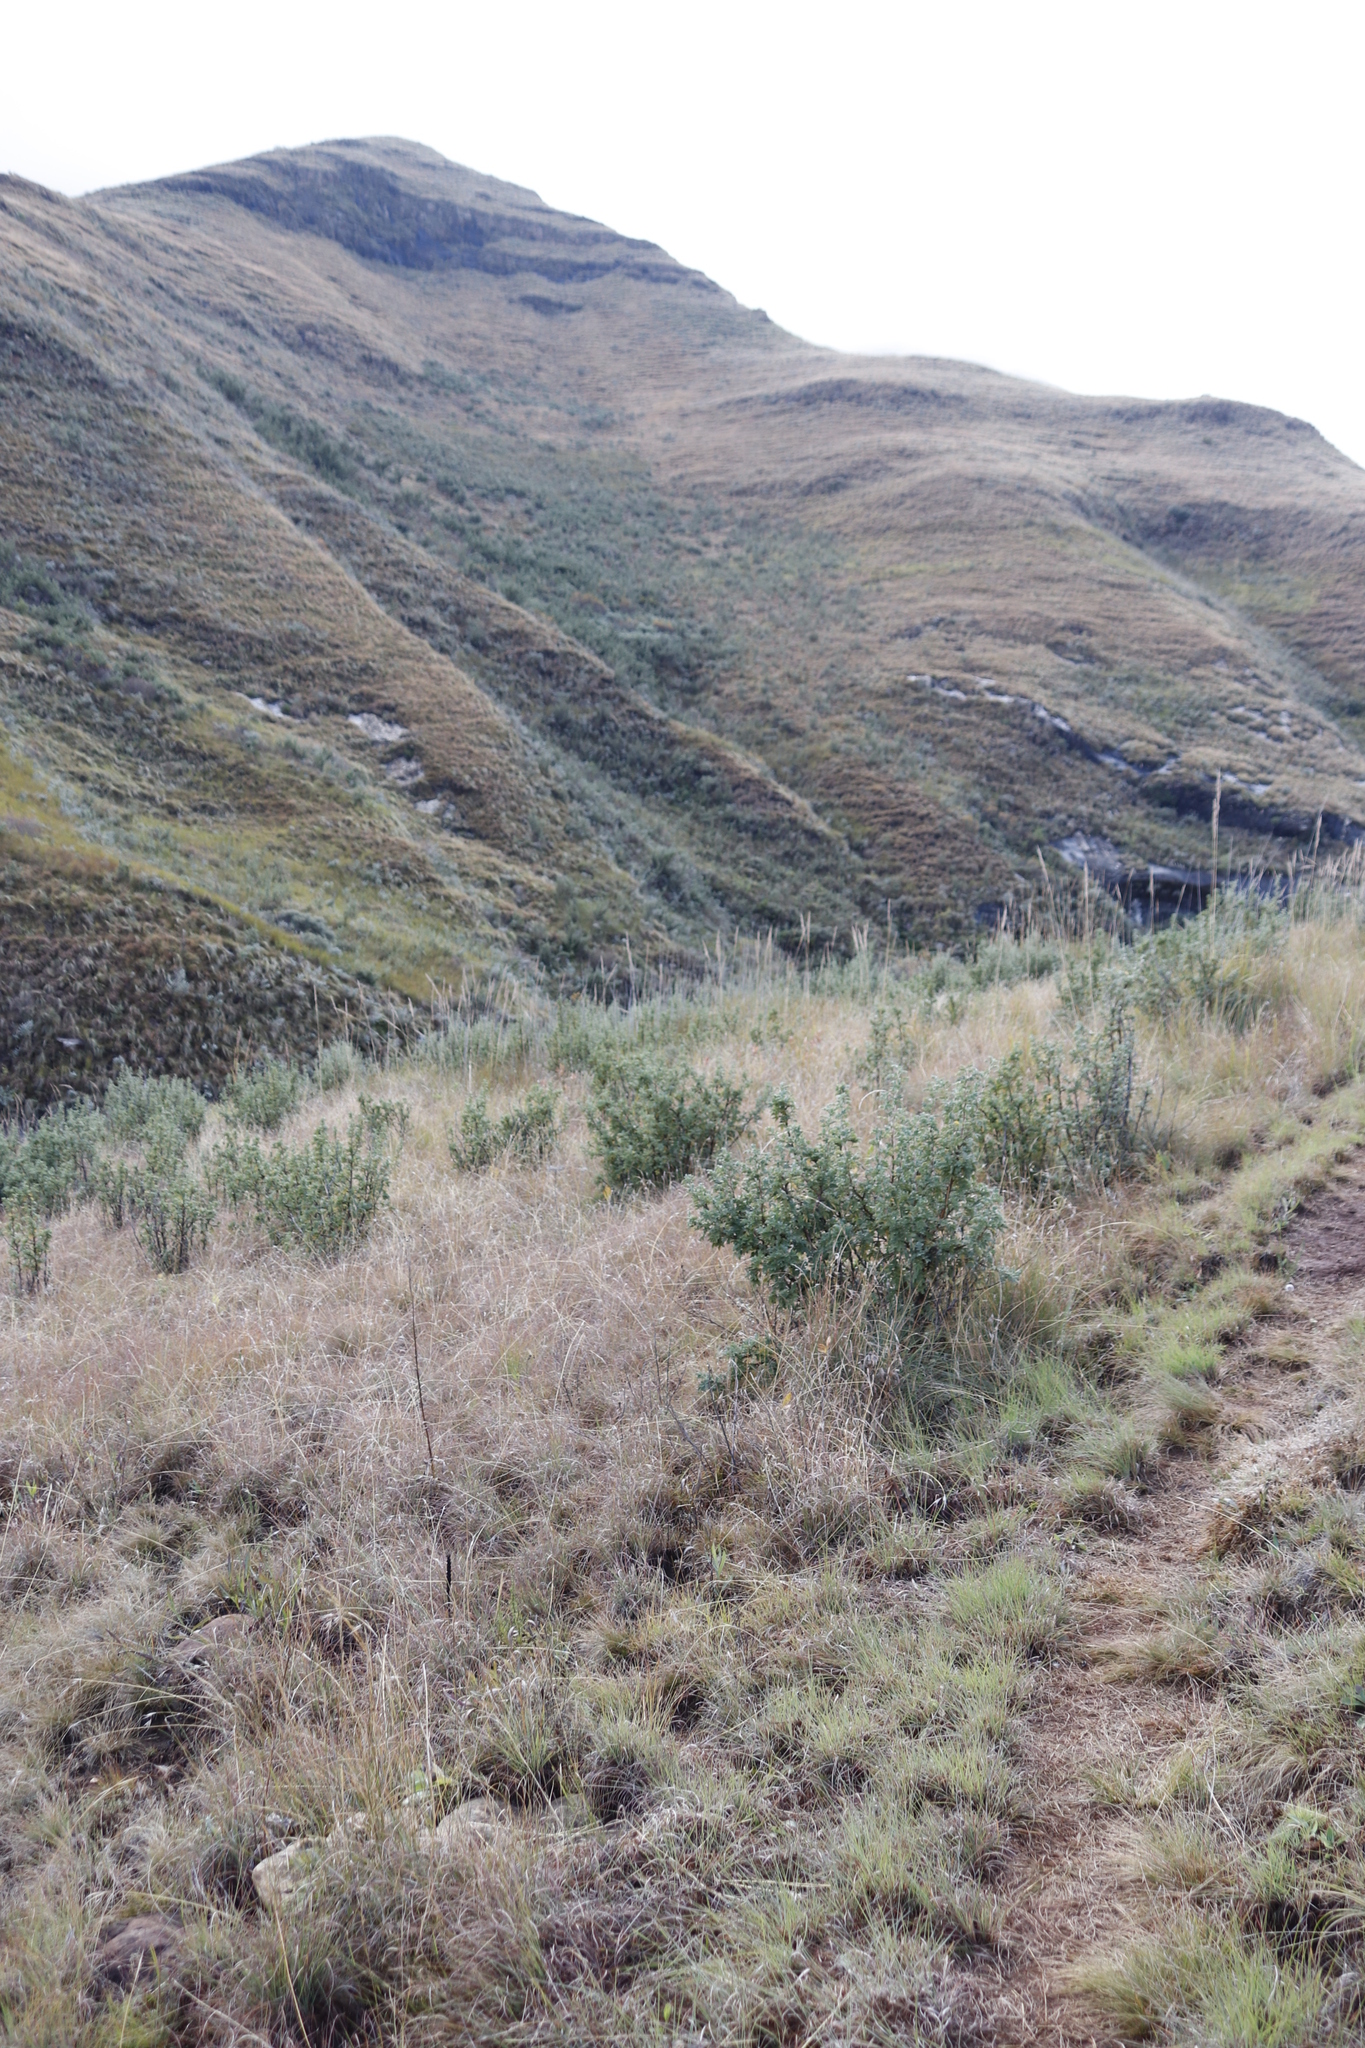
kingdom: Plantae
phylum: Tracheophyta
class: Magnoliopsida
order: Rosales
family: Rosaceae
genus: Leucosidea
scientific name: Leucosidea sericea
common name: Oldwood
